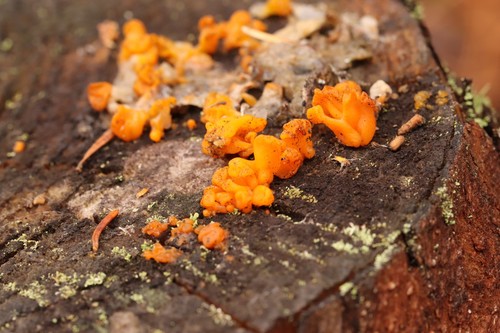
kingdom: Fungi
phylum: Basidiomycota
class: Dacrymycetes
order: Dacrymycetales
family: Dacrymycetaceae
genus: Dacrymyces
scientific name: Dacrymyces chrysospermus
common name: Orange jelly spot
